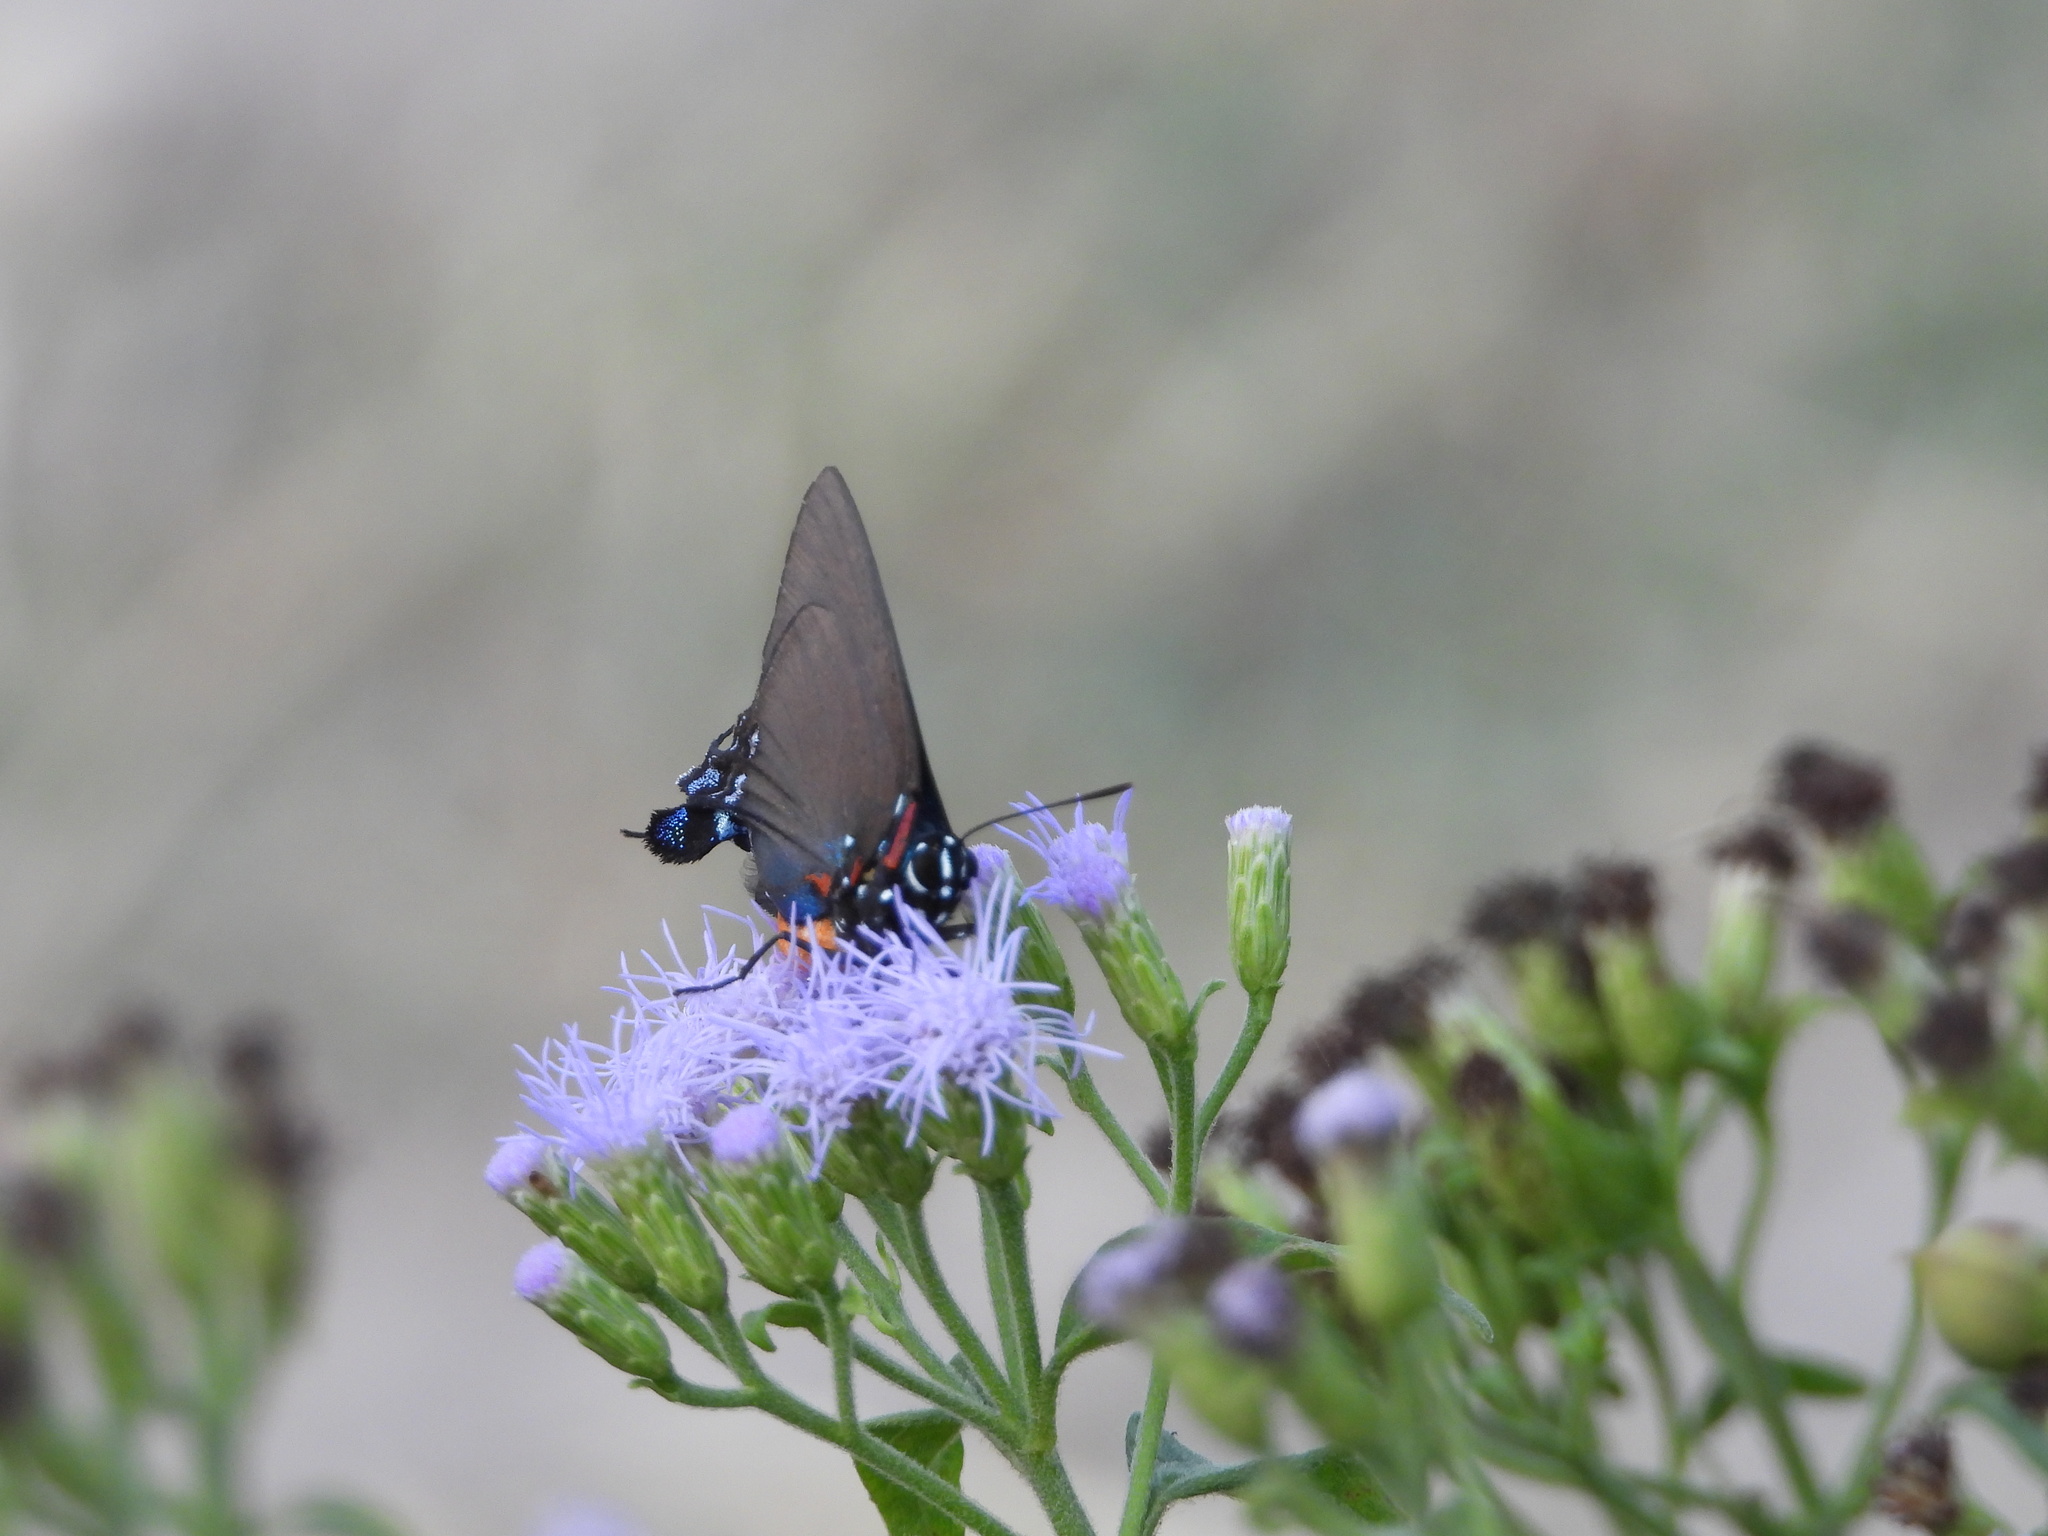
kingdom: Animalia
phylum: Arthropoda
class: Insecta
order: Lepidoptera
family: Lycaenidae
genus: Atlides
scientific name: Atlides halesus
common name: Great purple hairstreak
